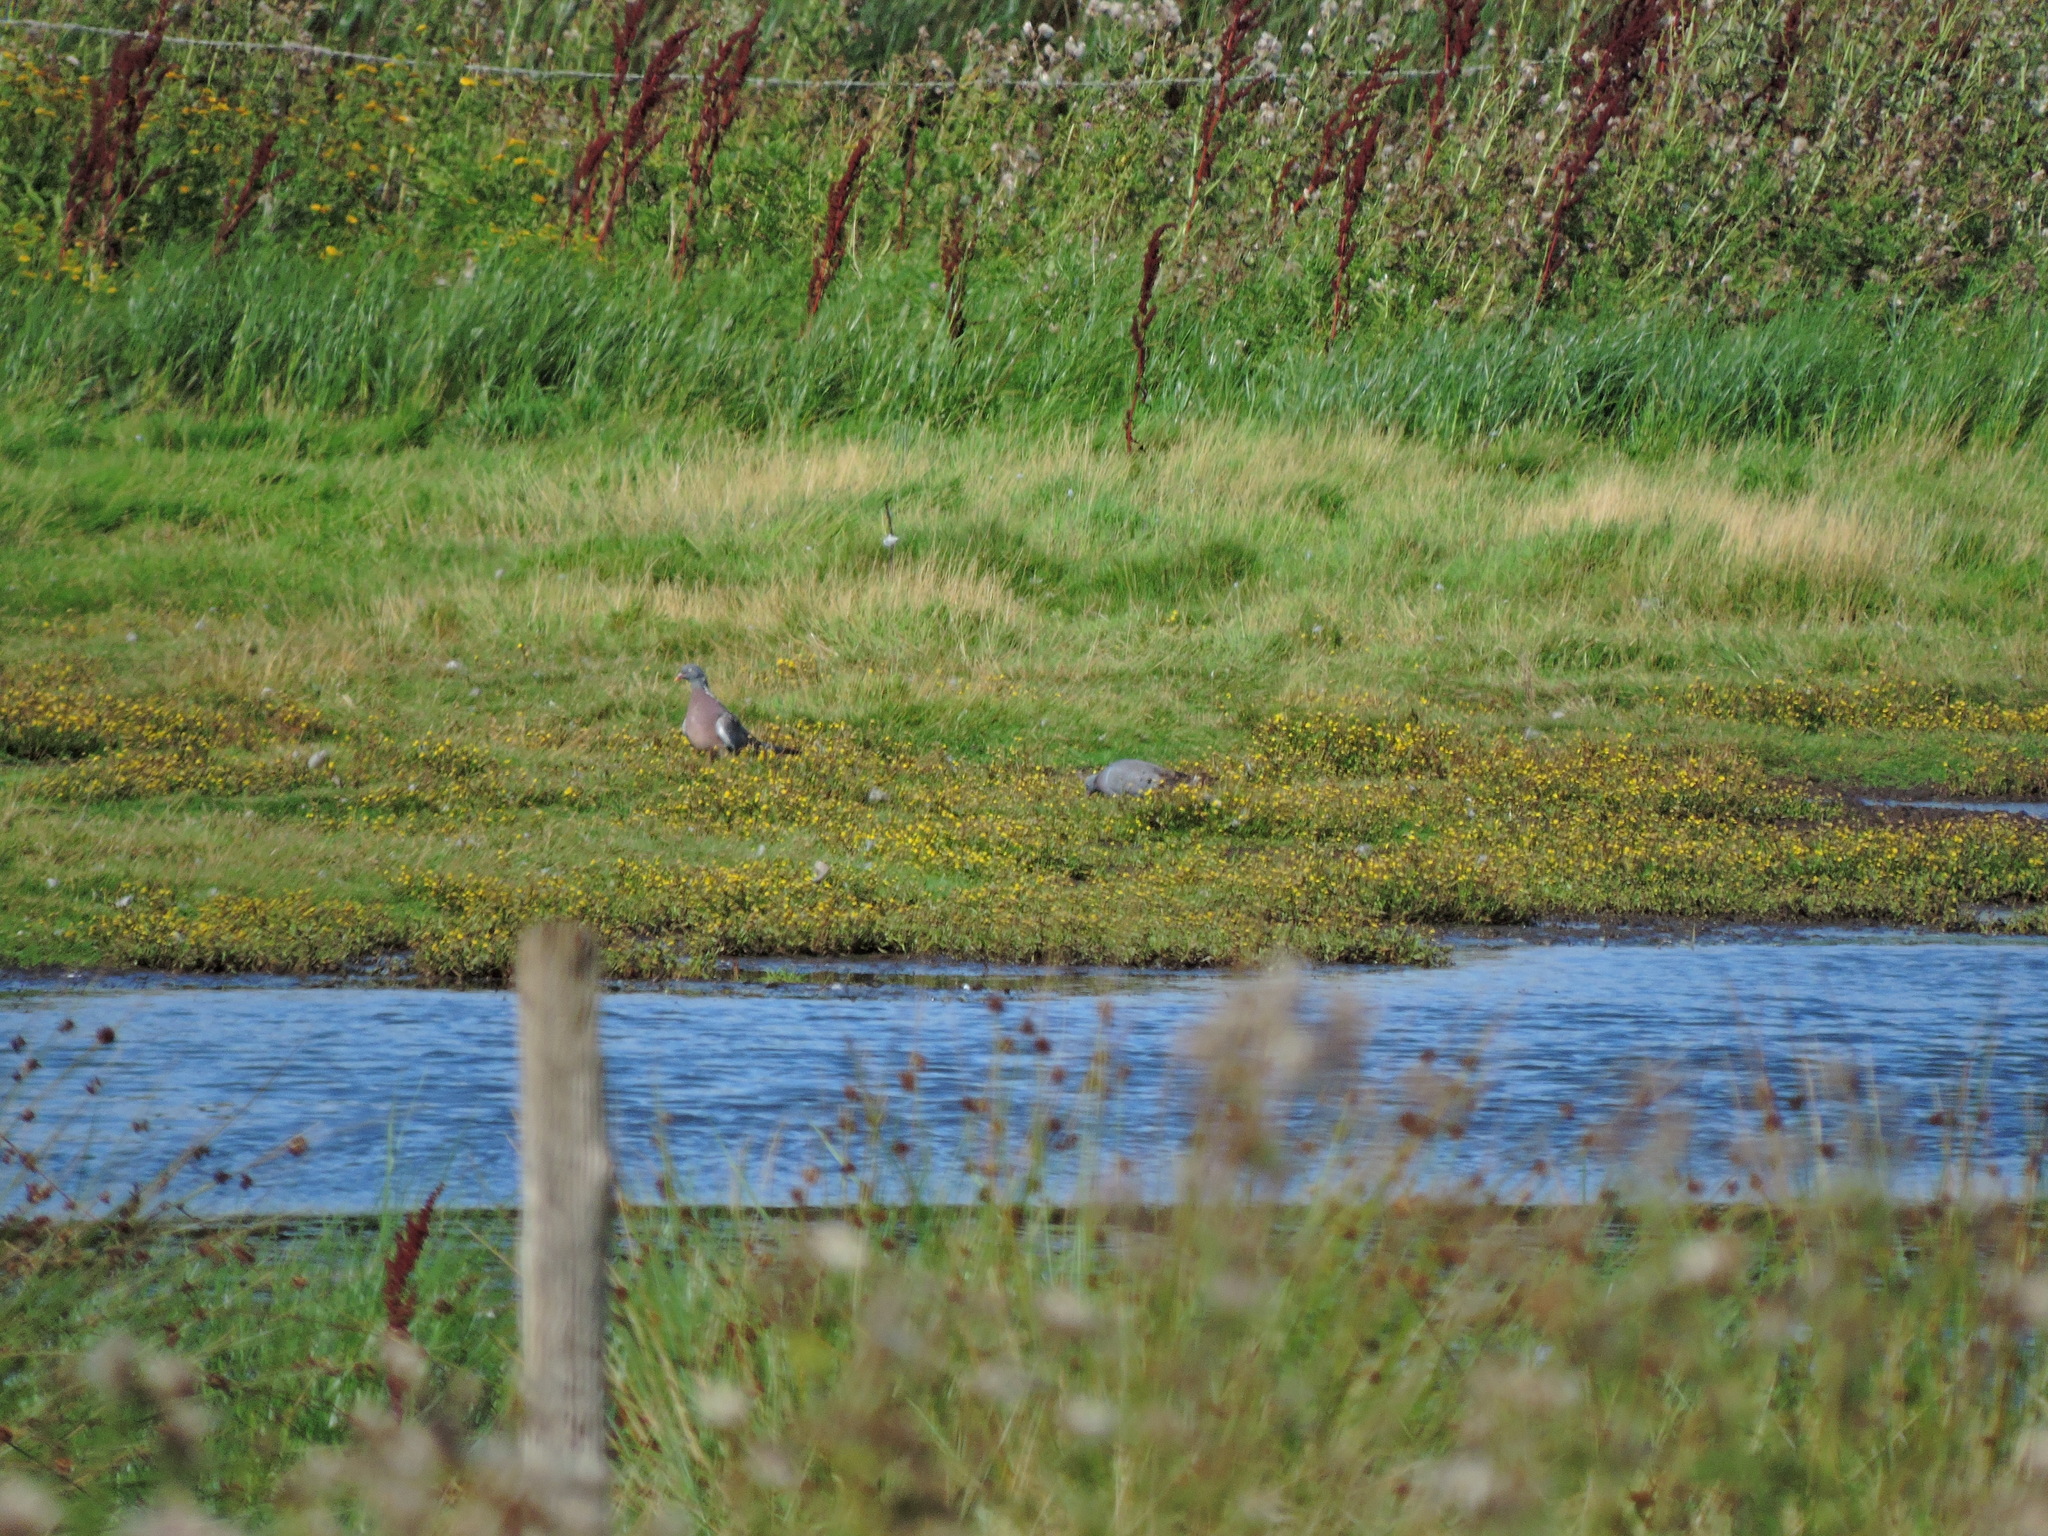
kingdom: Animalia
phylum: Chordata
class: Aves
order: Columbiformes
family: Columbidae
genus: Columba
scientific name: Columba oenas
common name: Stock dove
